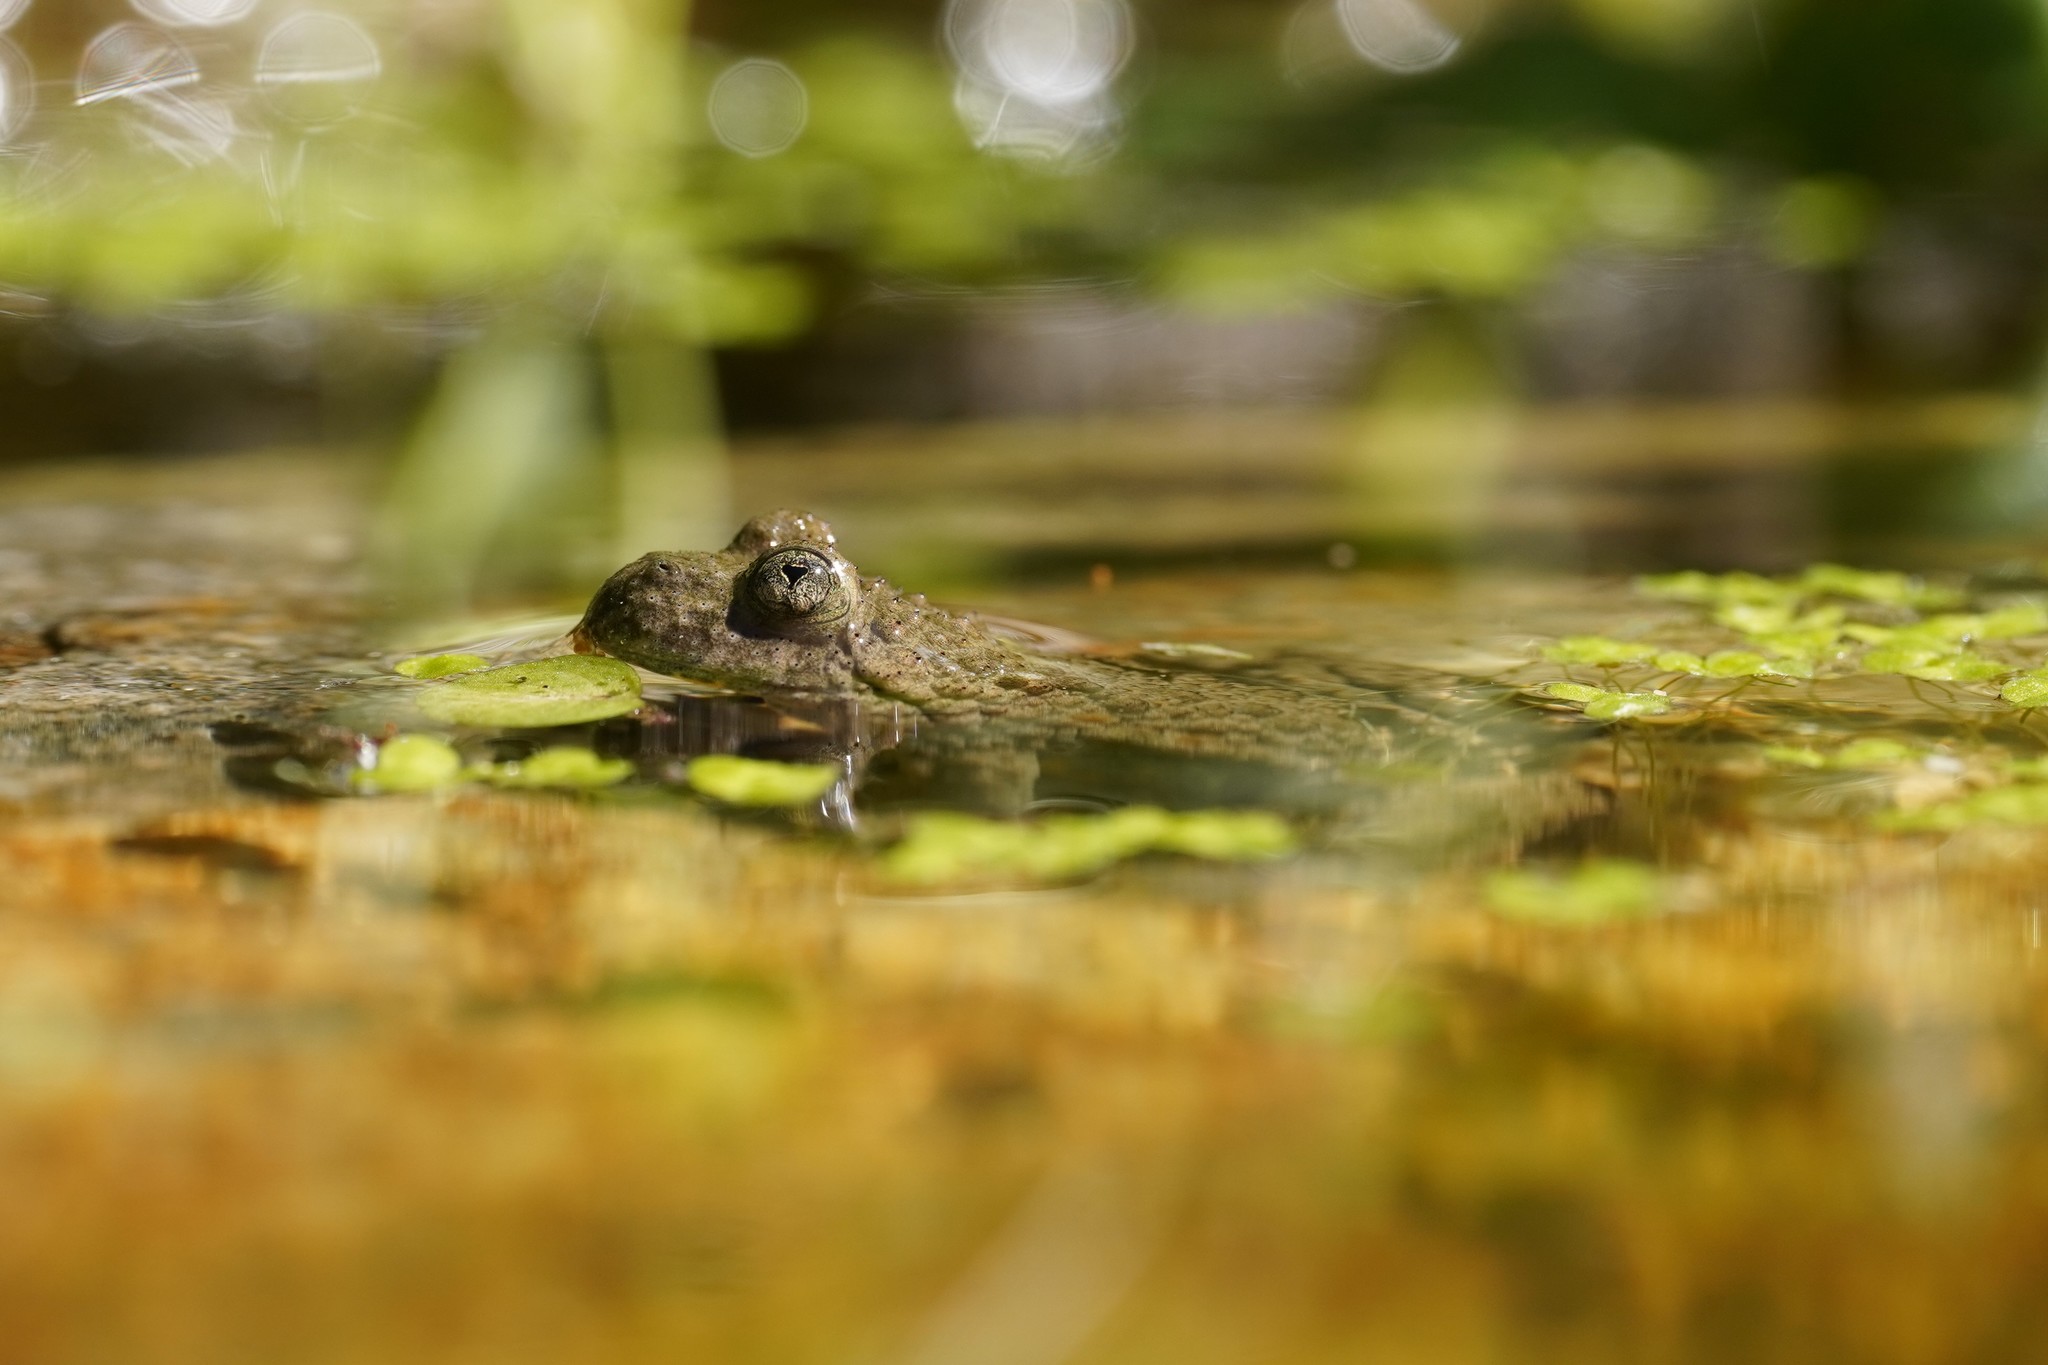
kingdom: Animalia
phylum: Chordata
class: Amphibia
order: Anura
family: Bombinatoridae
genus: Bombina
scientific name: Bombina variegata
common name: Yellow-bellied toad
